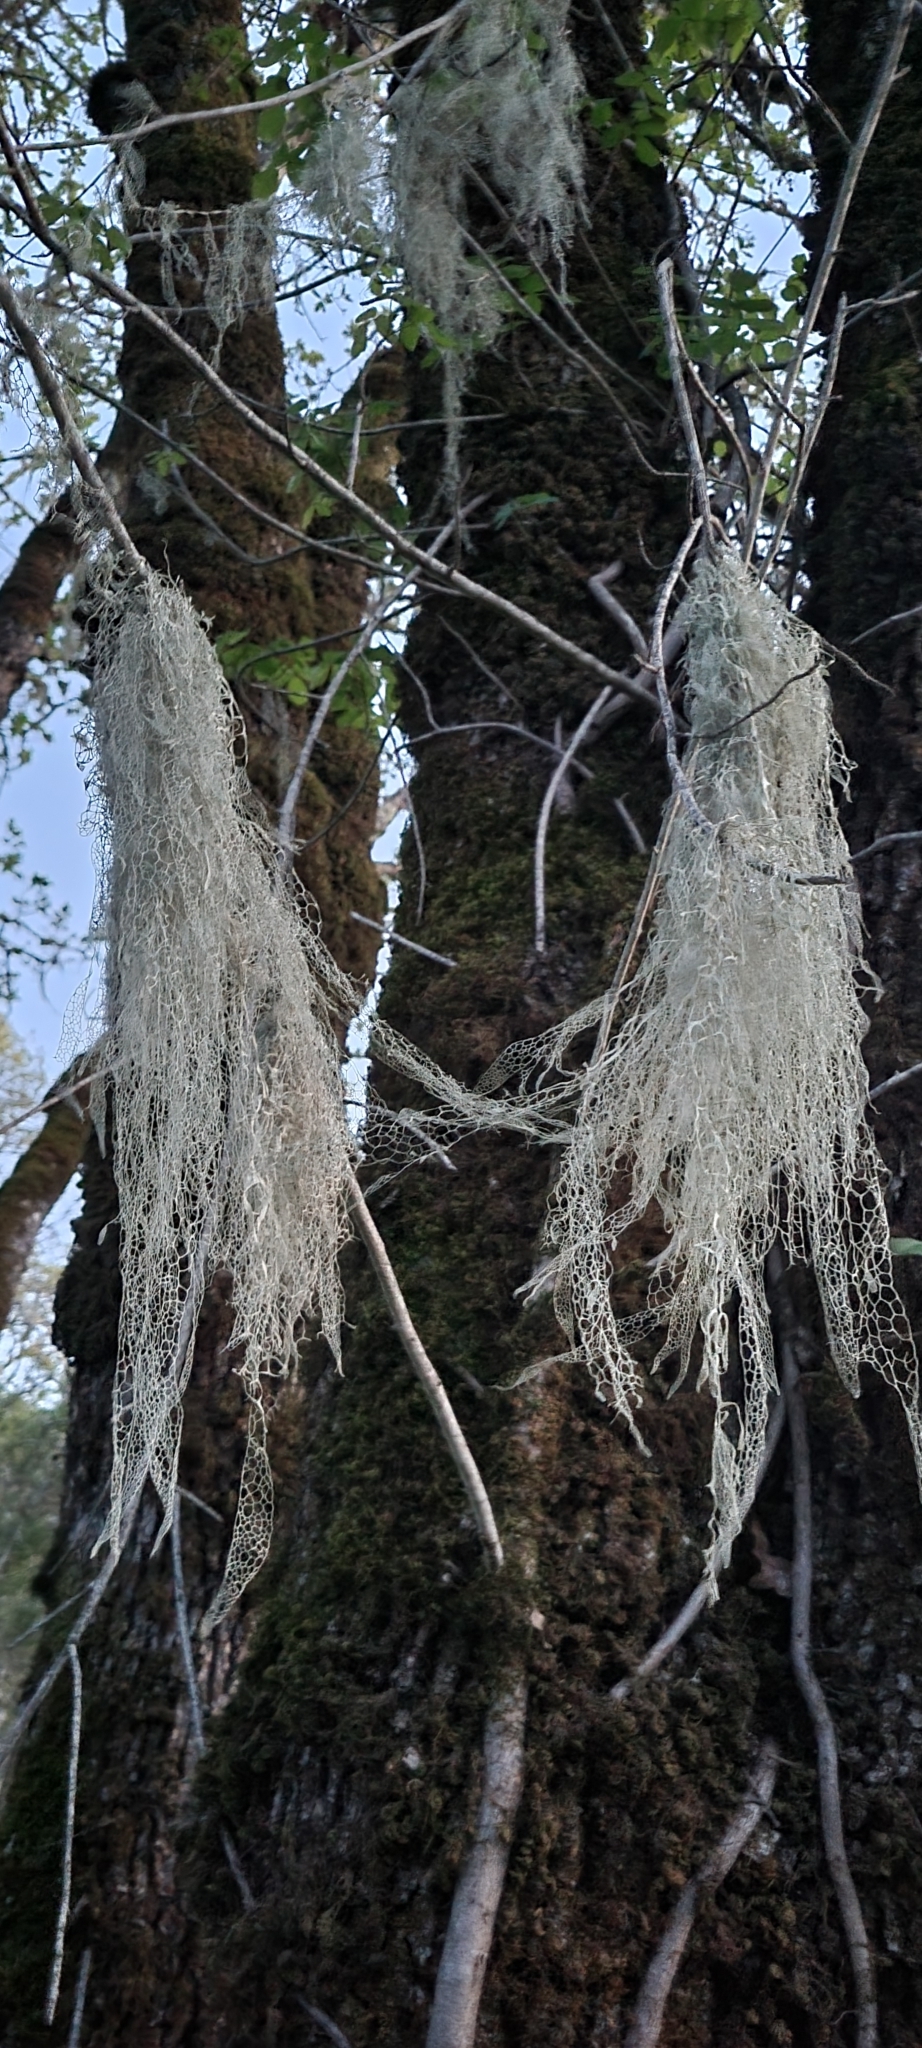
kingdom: Fungi
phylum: Ascomycota
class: Lecanoromycetes
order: Lecanorales
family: Ramalinaceae
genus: Ramalina
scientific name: Ramalina menziesii
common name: Lace lichen
